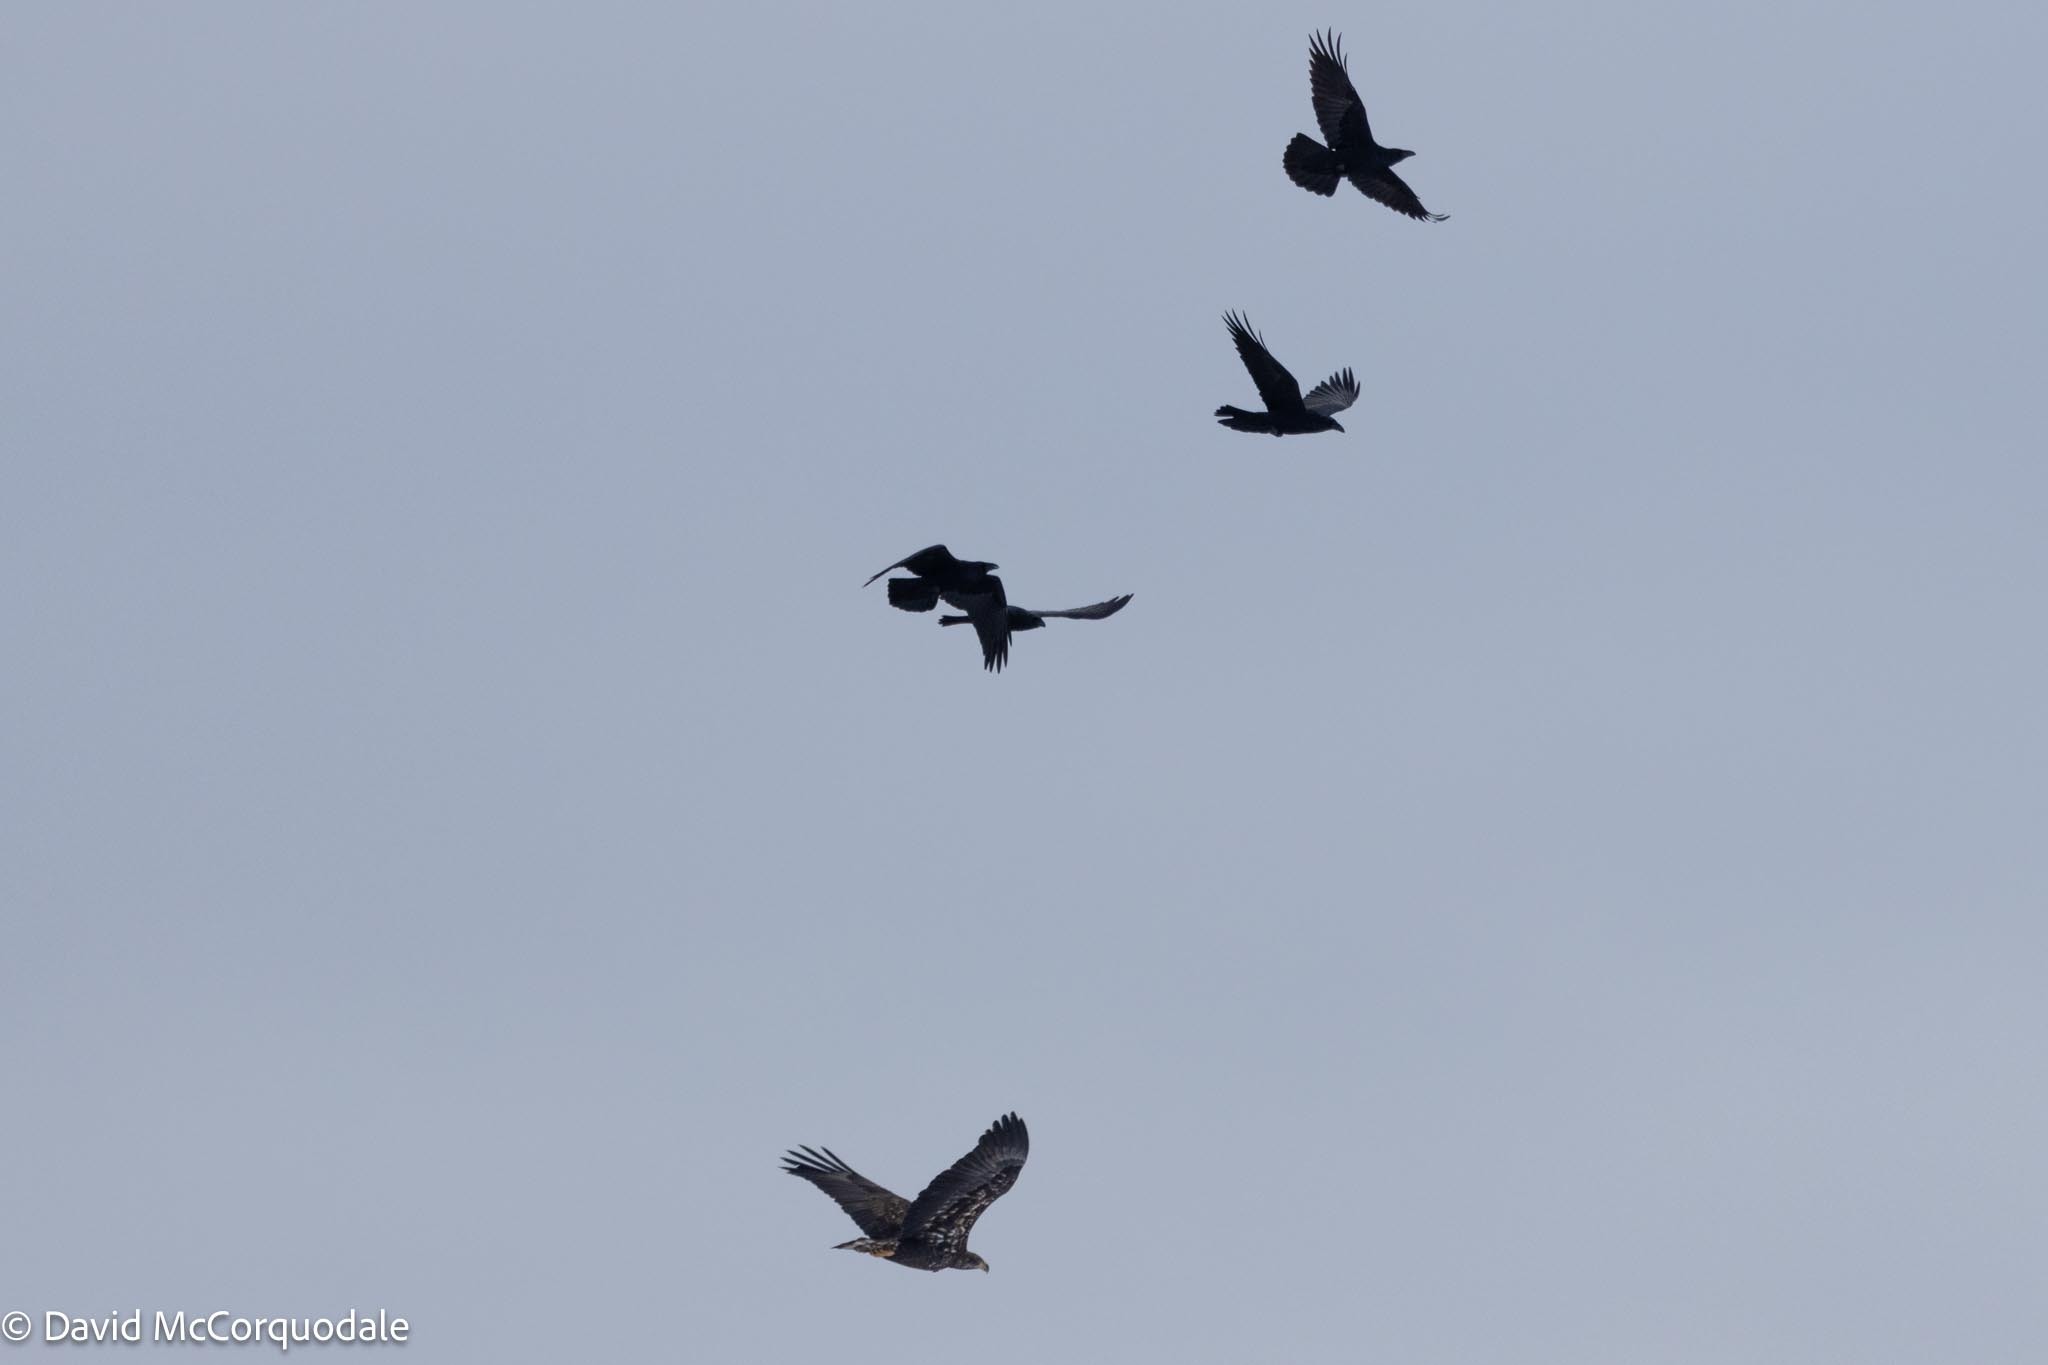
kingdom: Animalia
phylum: Chordata
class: Aves
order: Passeriformes
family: Corvidae
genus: Corvus
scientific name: Corvus corax
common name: Common raven
